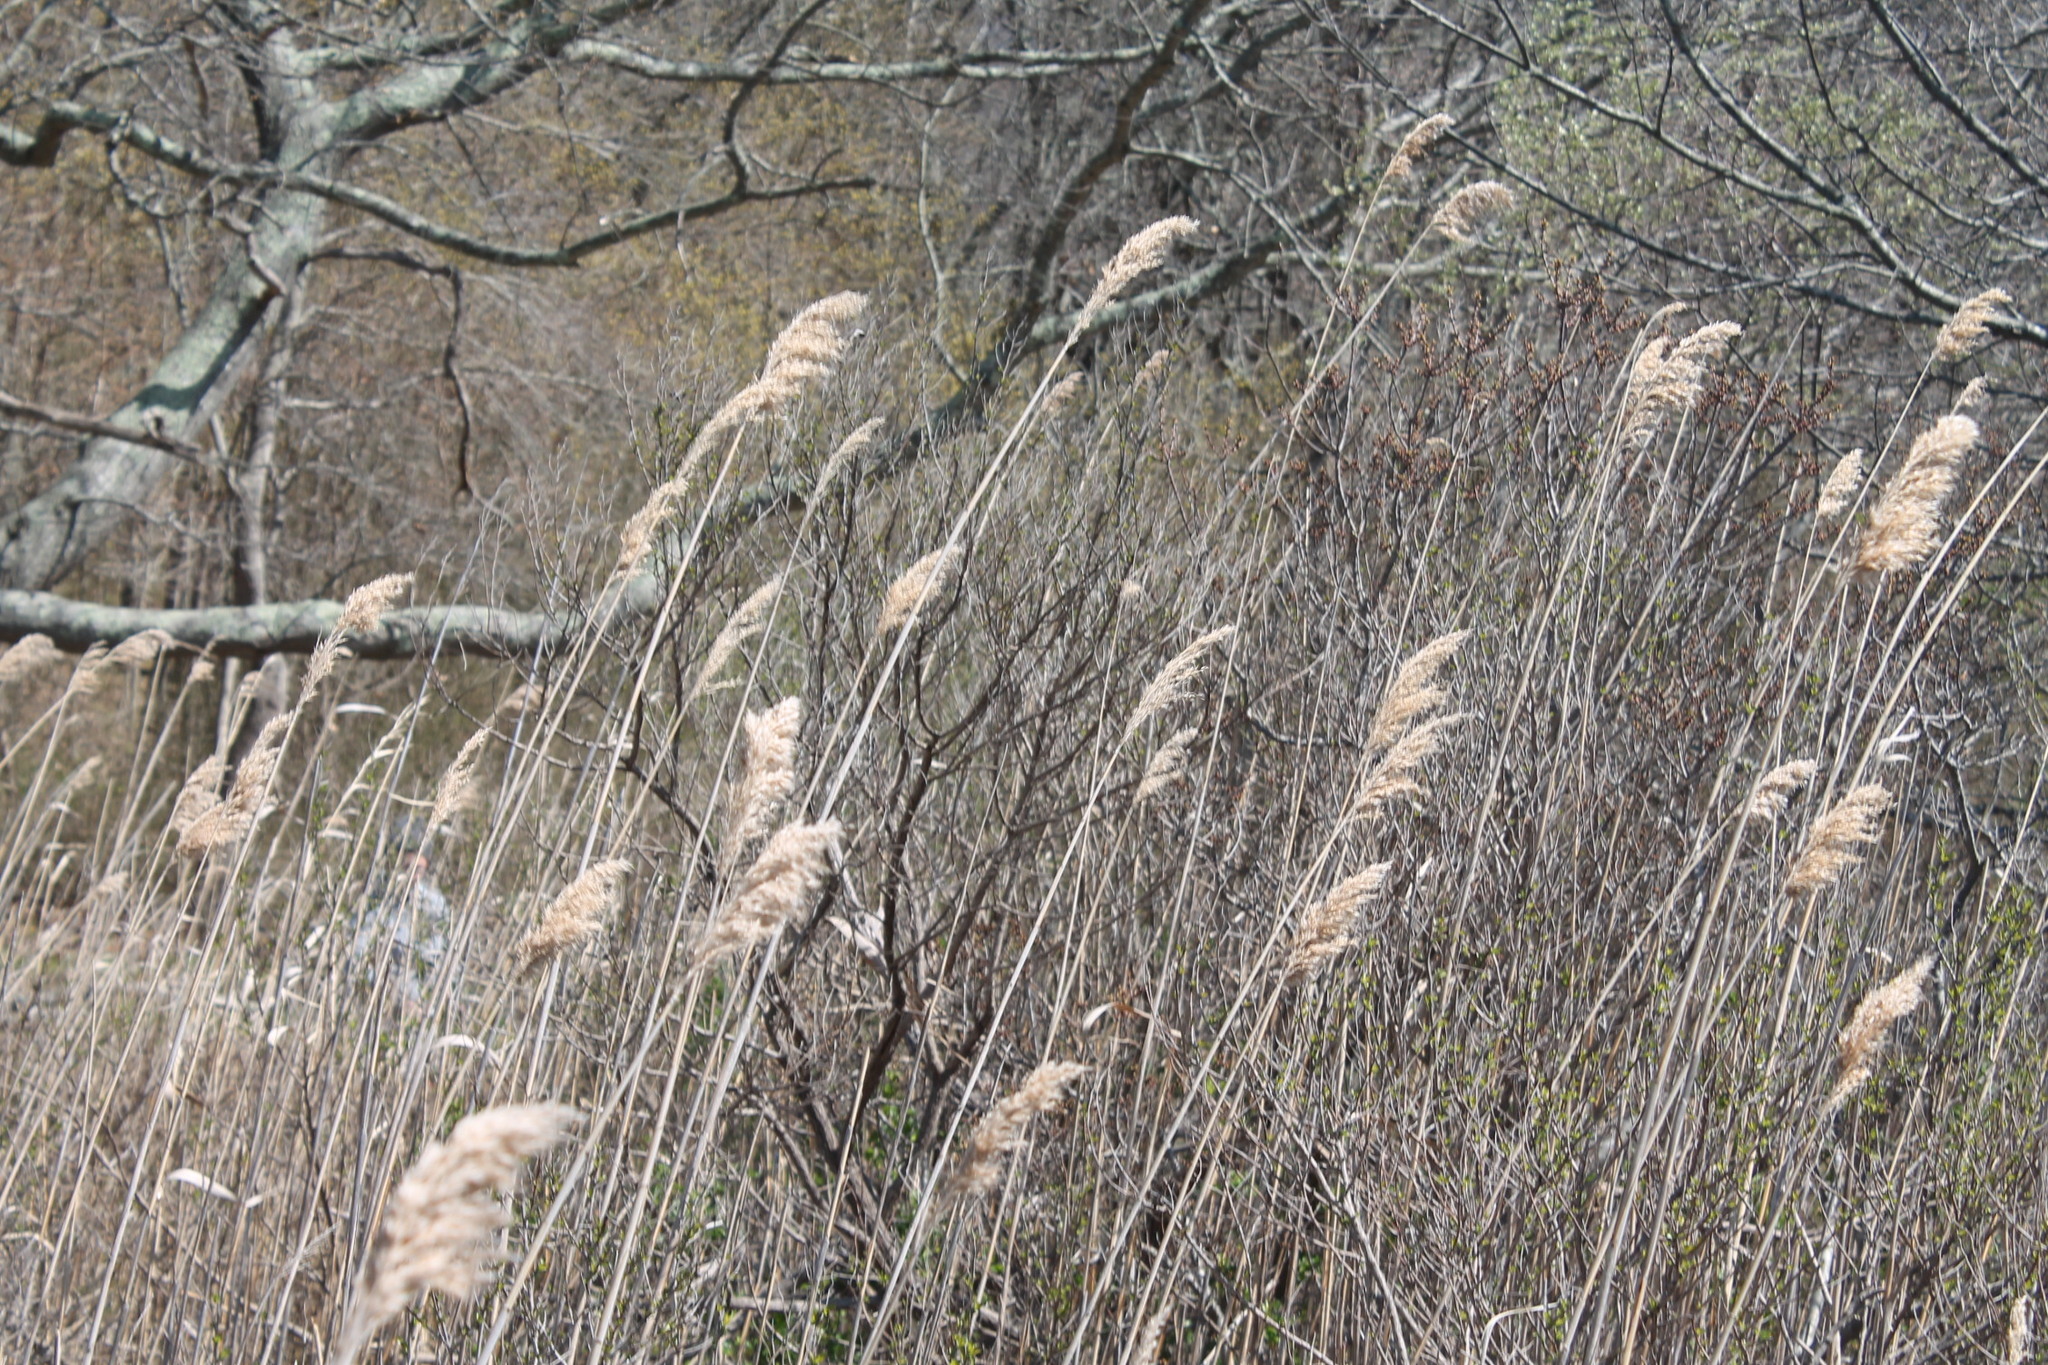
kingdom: Plantae
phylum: Tracheophyta
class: Liliopsida
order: Poales
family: Poaceae
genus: Phragmites
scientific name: Phragmites australis
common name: Common reed
